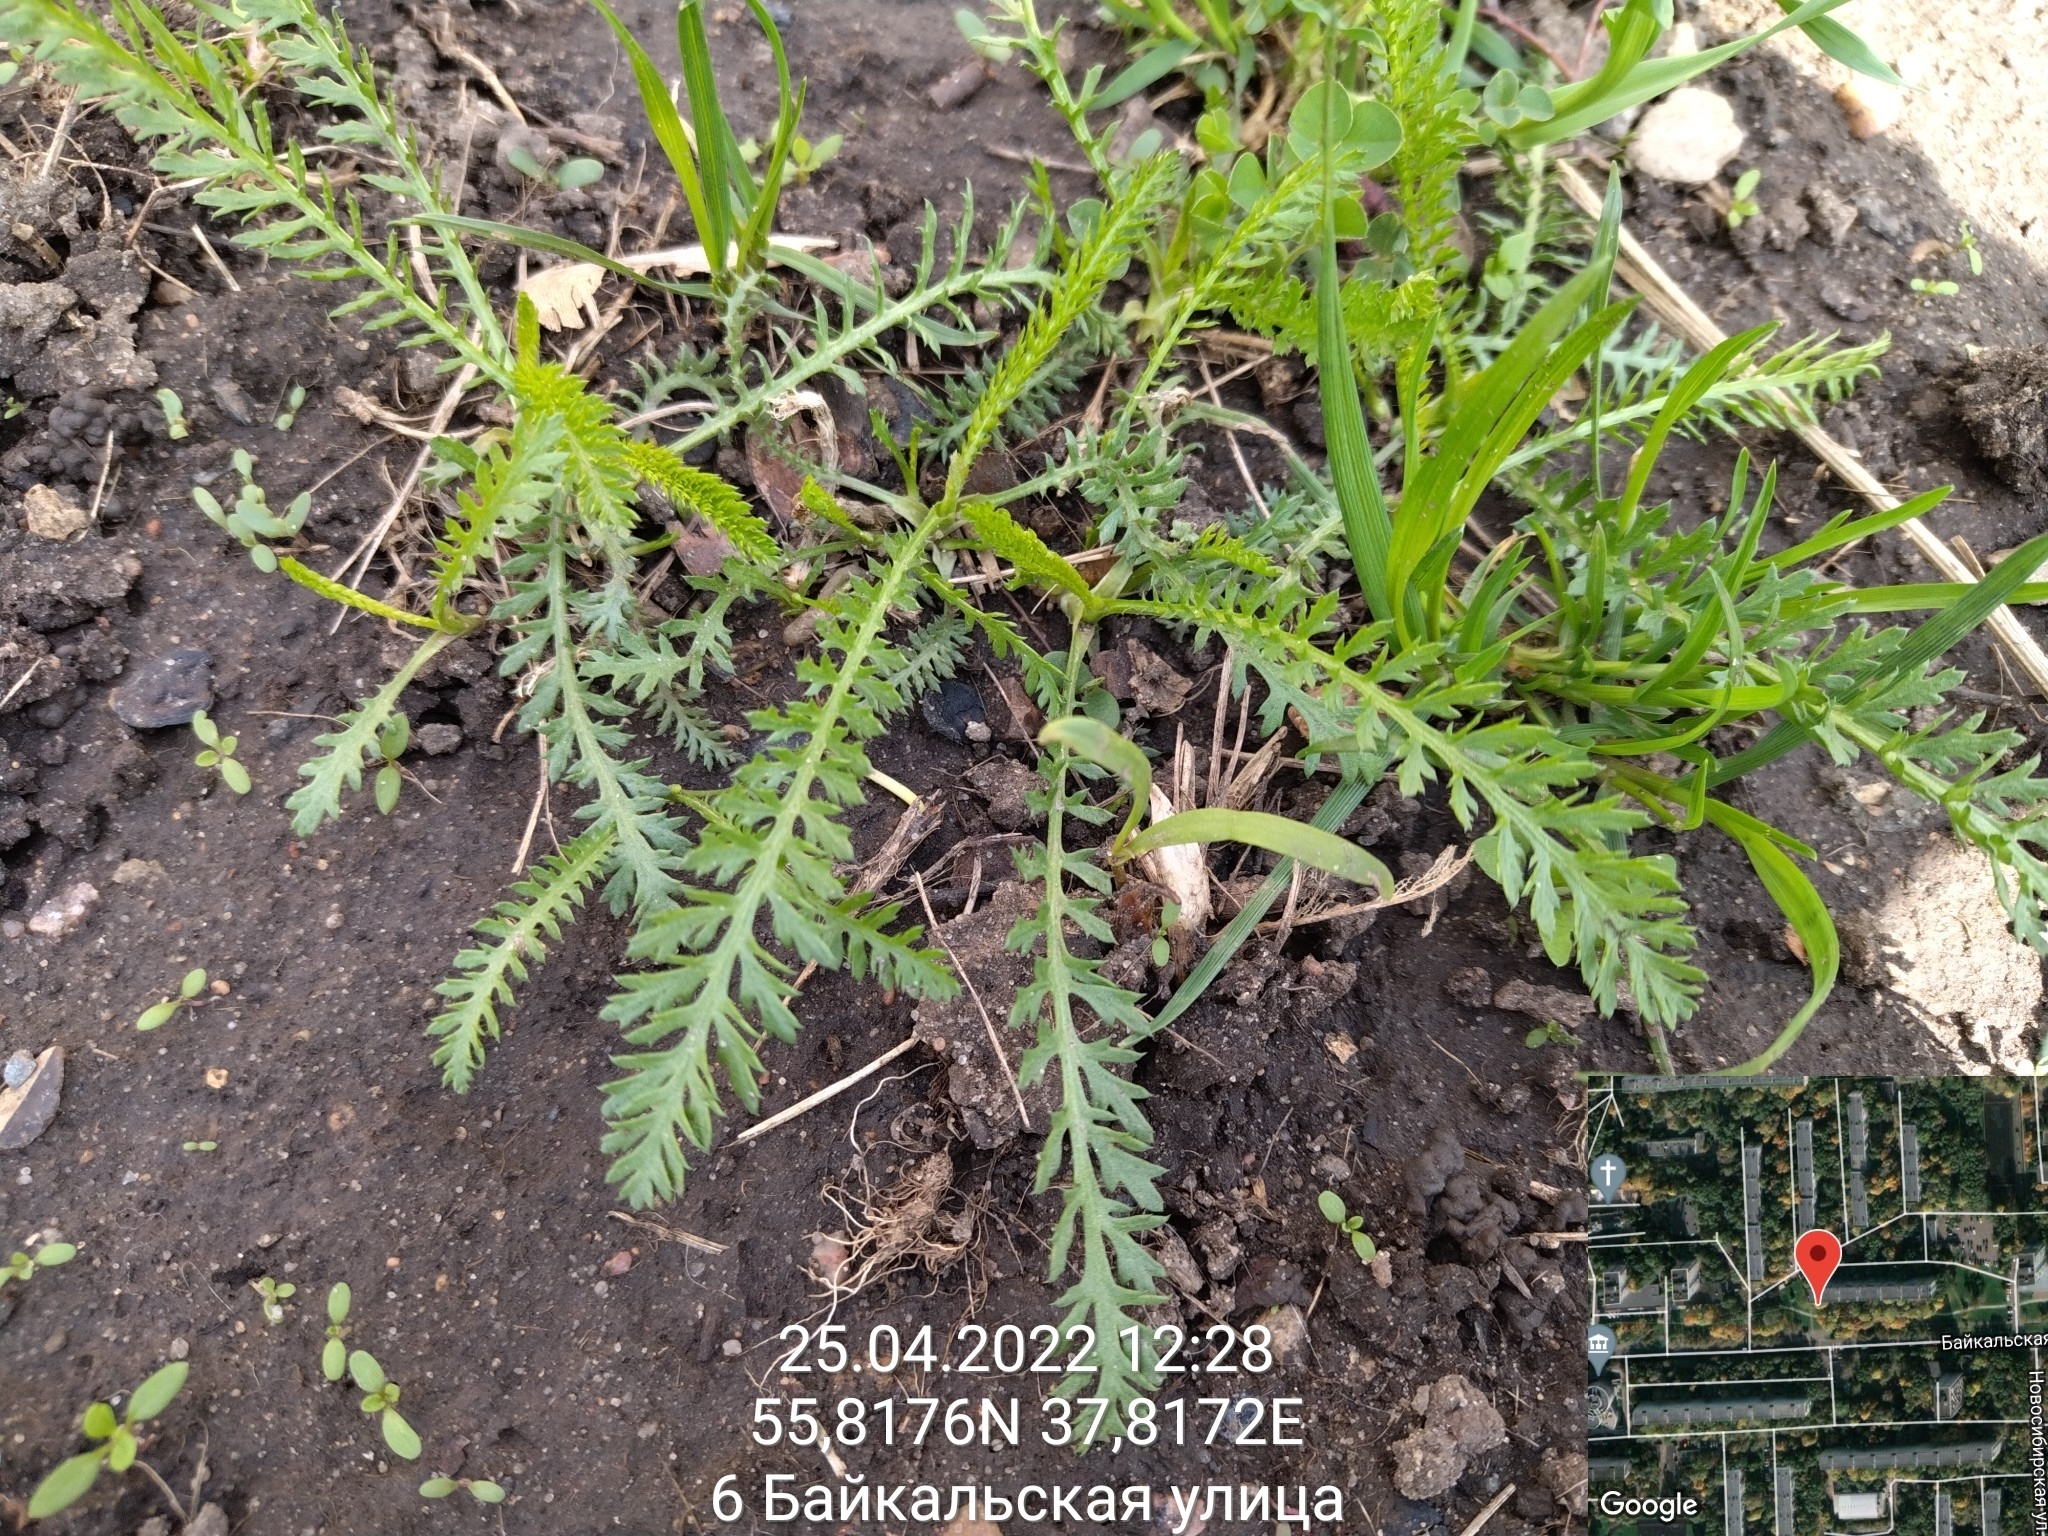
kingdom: Plantae
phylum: Tracheophyta
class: Magnoliopsida
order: Asterales
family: Asteraceae
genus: Achillea
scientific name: Achillea millefolium
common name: Yarrow
